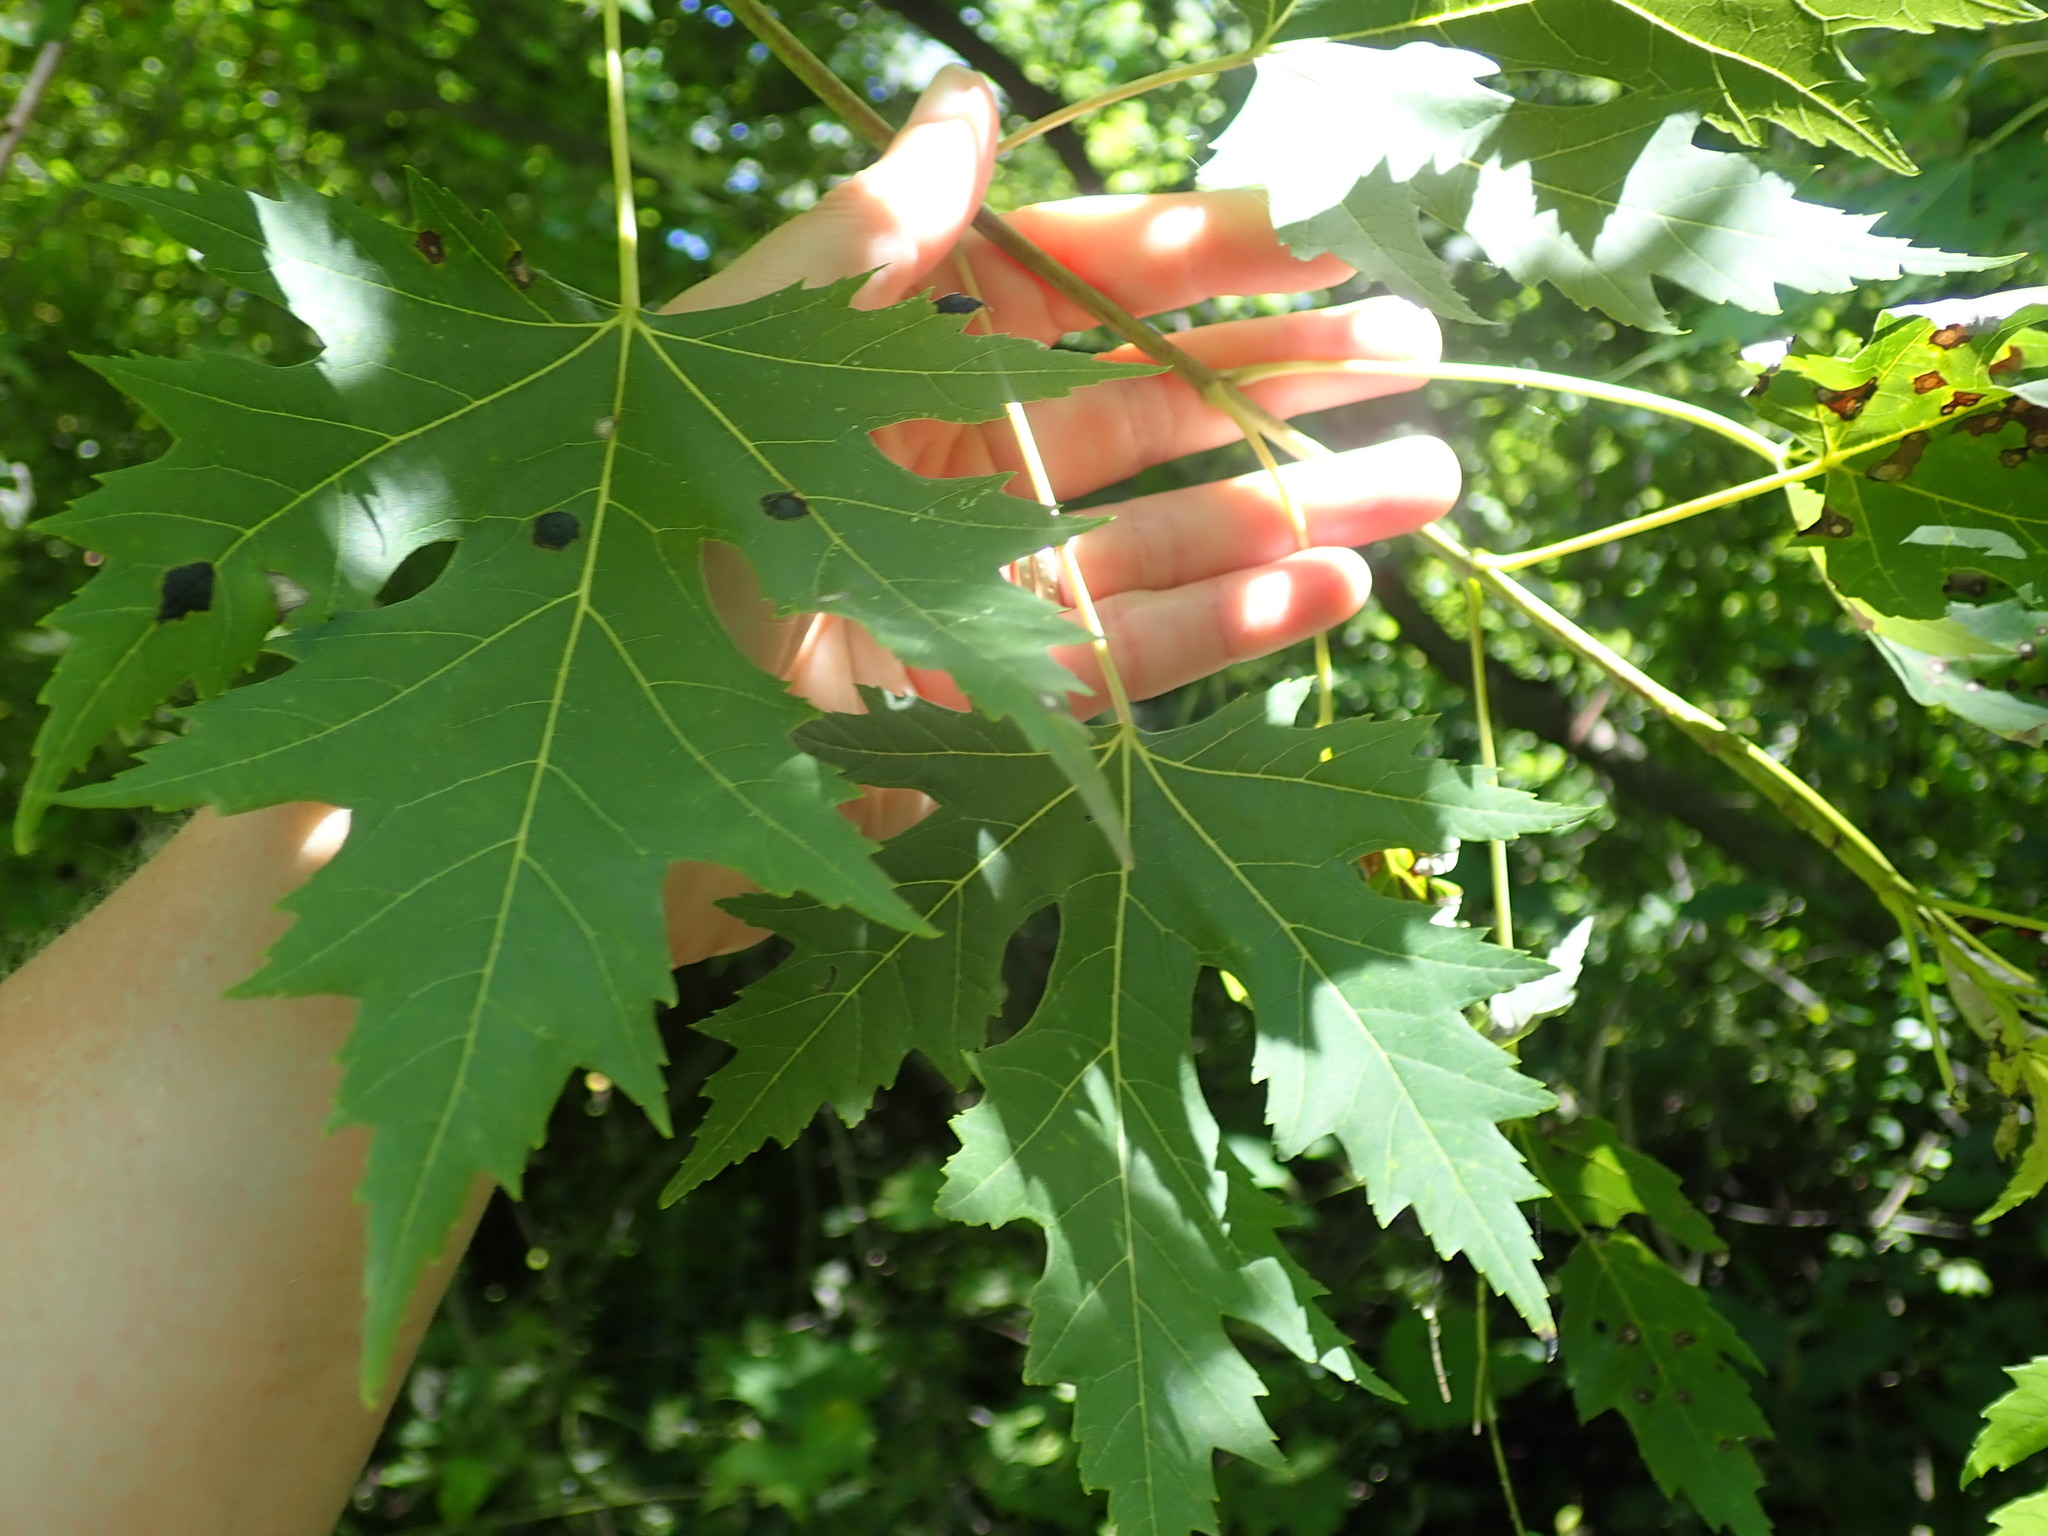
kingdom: Plantae
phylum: Tracheophyta
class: Magnoliopsida
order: Sapindales
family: Sapindaceae
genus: Acer
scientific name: Acer saccharinum
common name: Silver maple
